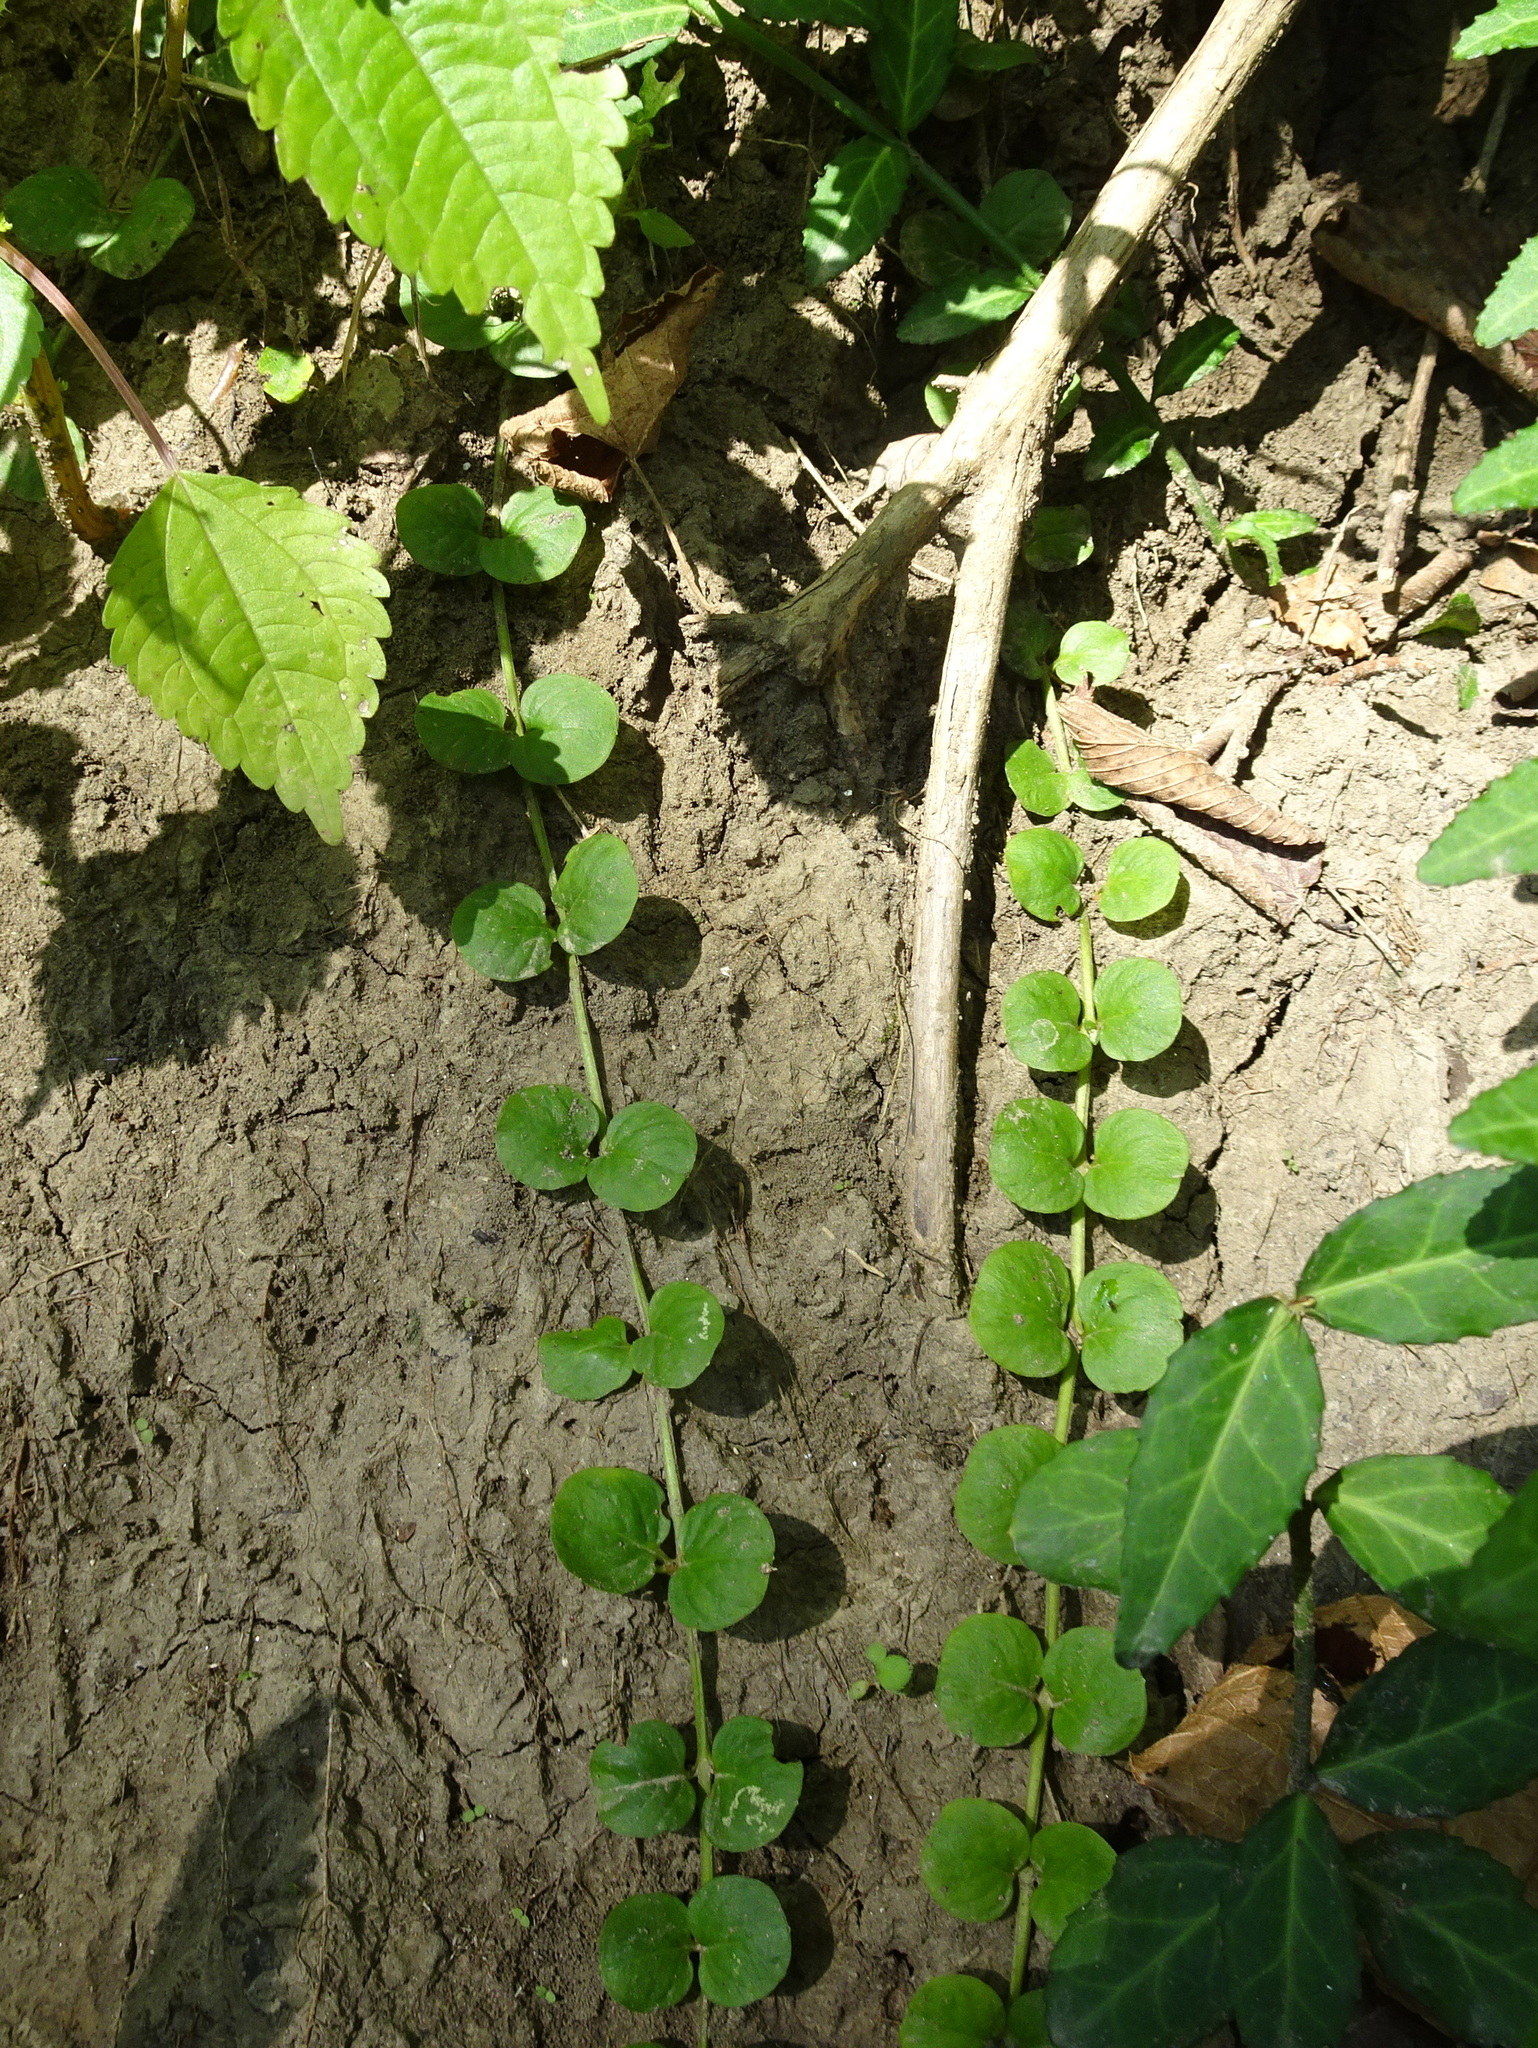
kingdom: Plantae
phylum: Tracheophyta
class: Magnoliopsida
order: Ericales
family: Primulaceae
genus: Lysimachia
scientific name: Lysimachia nummularia
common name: Moneywort
